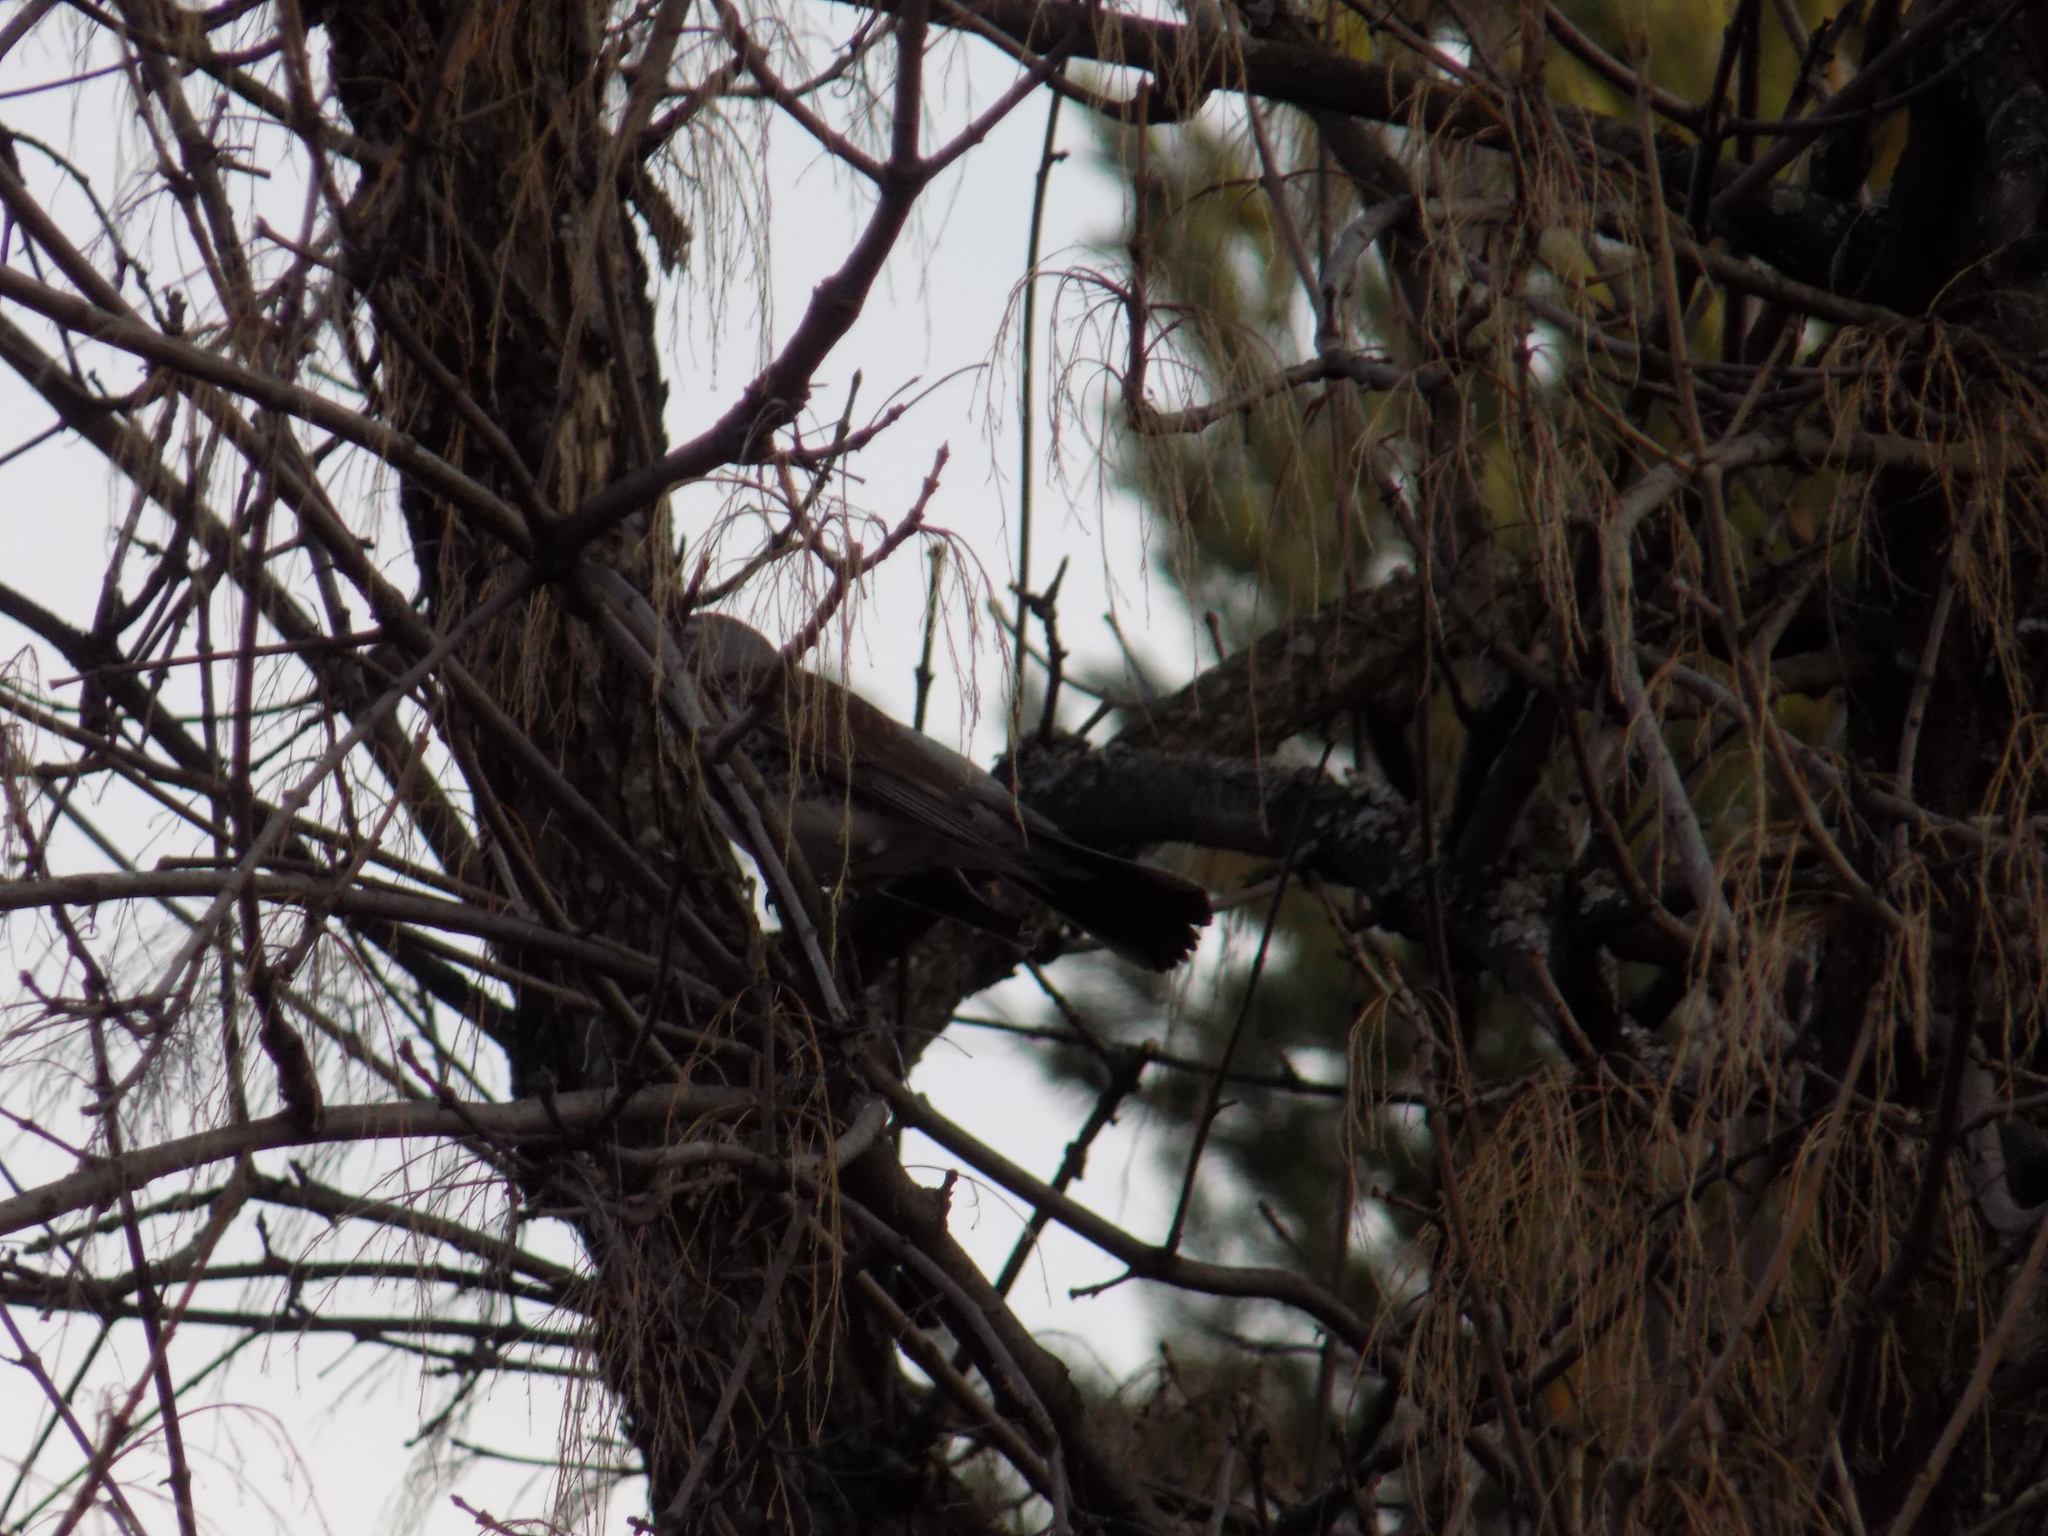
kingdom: Animalia
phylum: Chordata
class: Aves
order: Passeriformes
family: Turdidae
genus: Turdus
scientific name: Turdus pilaris
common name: Fieldfare
